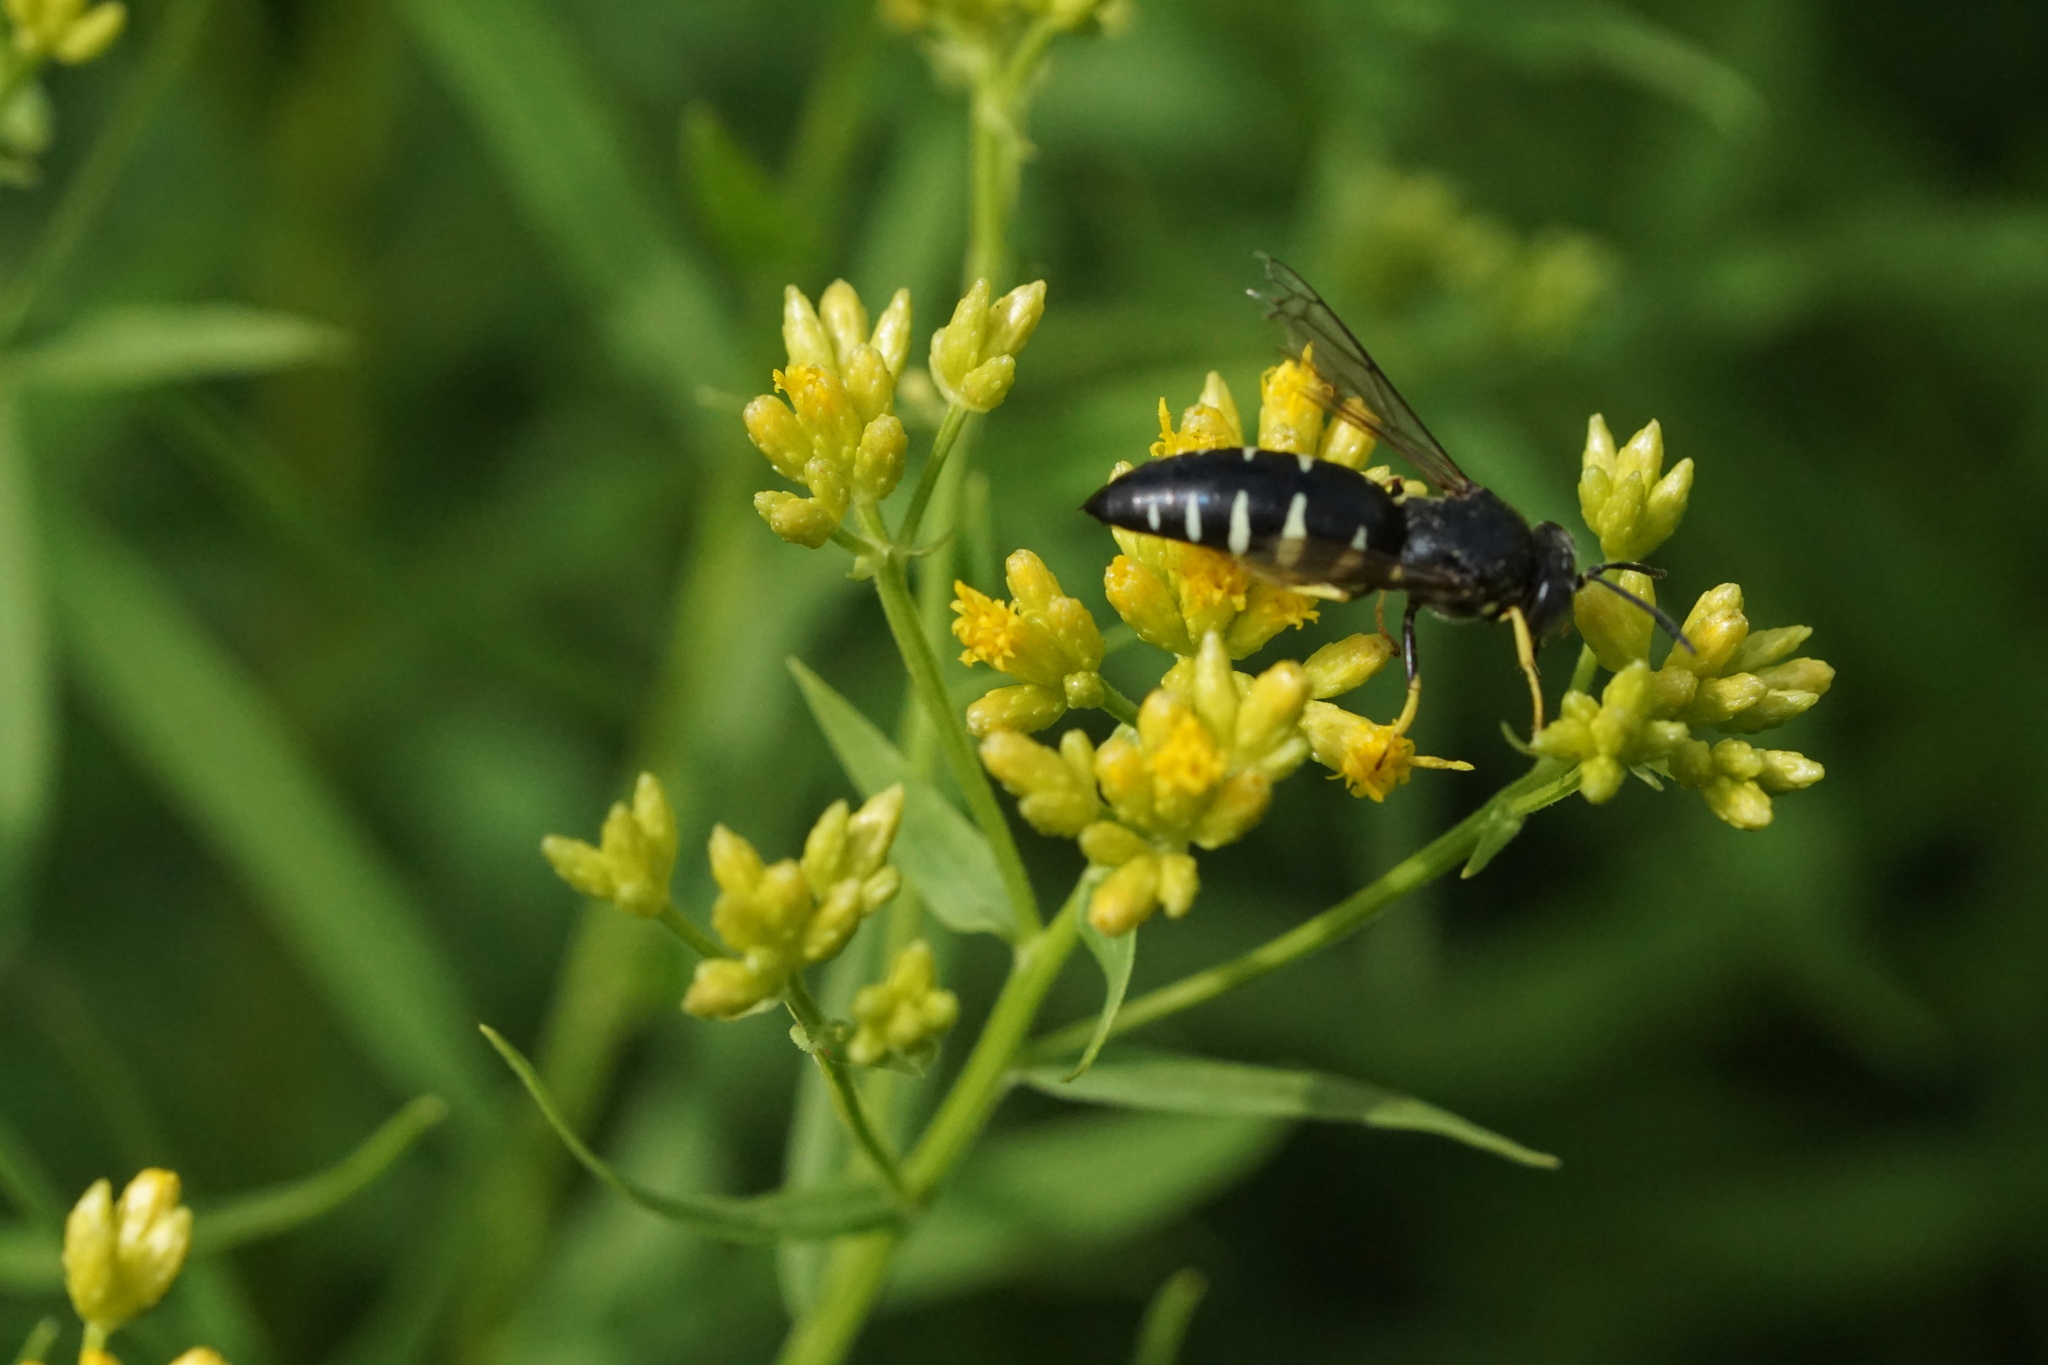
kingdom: Animalia
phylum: Arthropoda
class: Insecta
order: Hymenoptera
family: Crabronidae
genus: Bicyrtes
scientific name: Bicyrtes quadrifasciatus
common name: Four-banded stink bug hunter wasp
